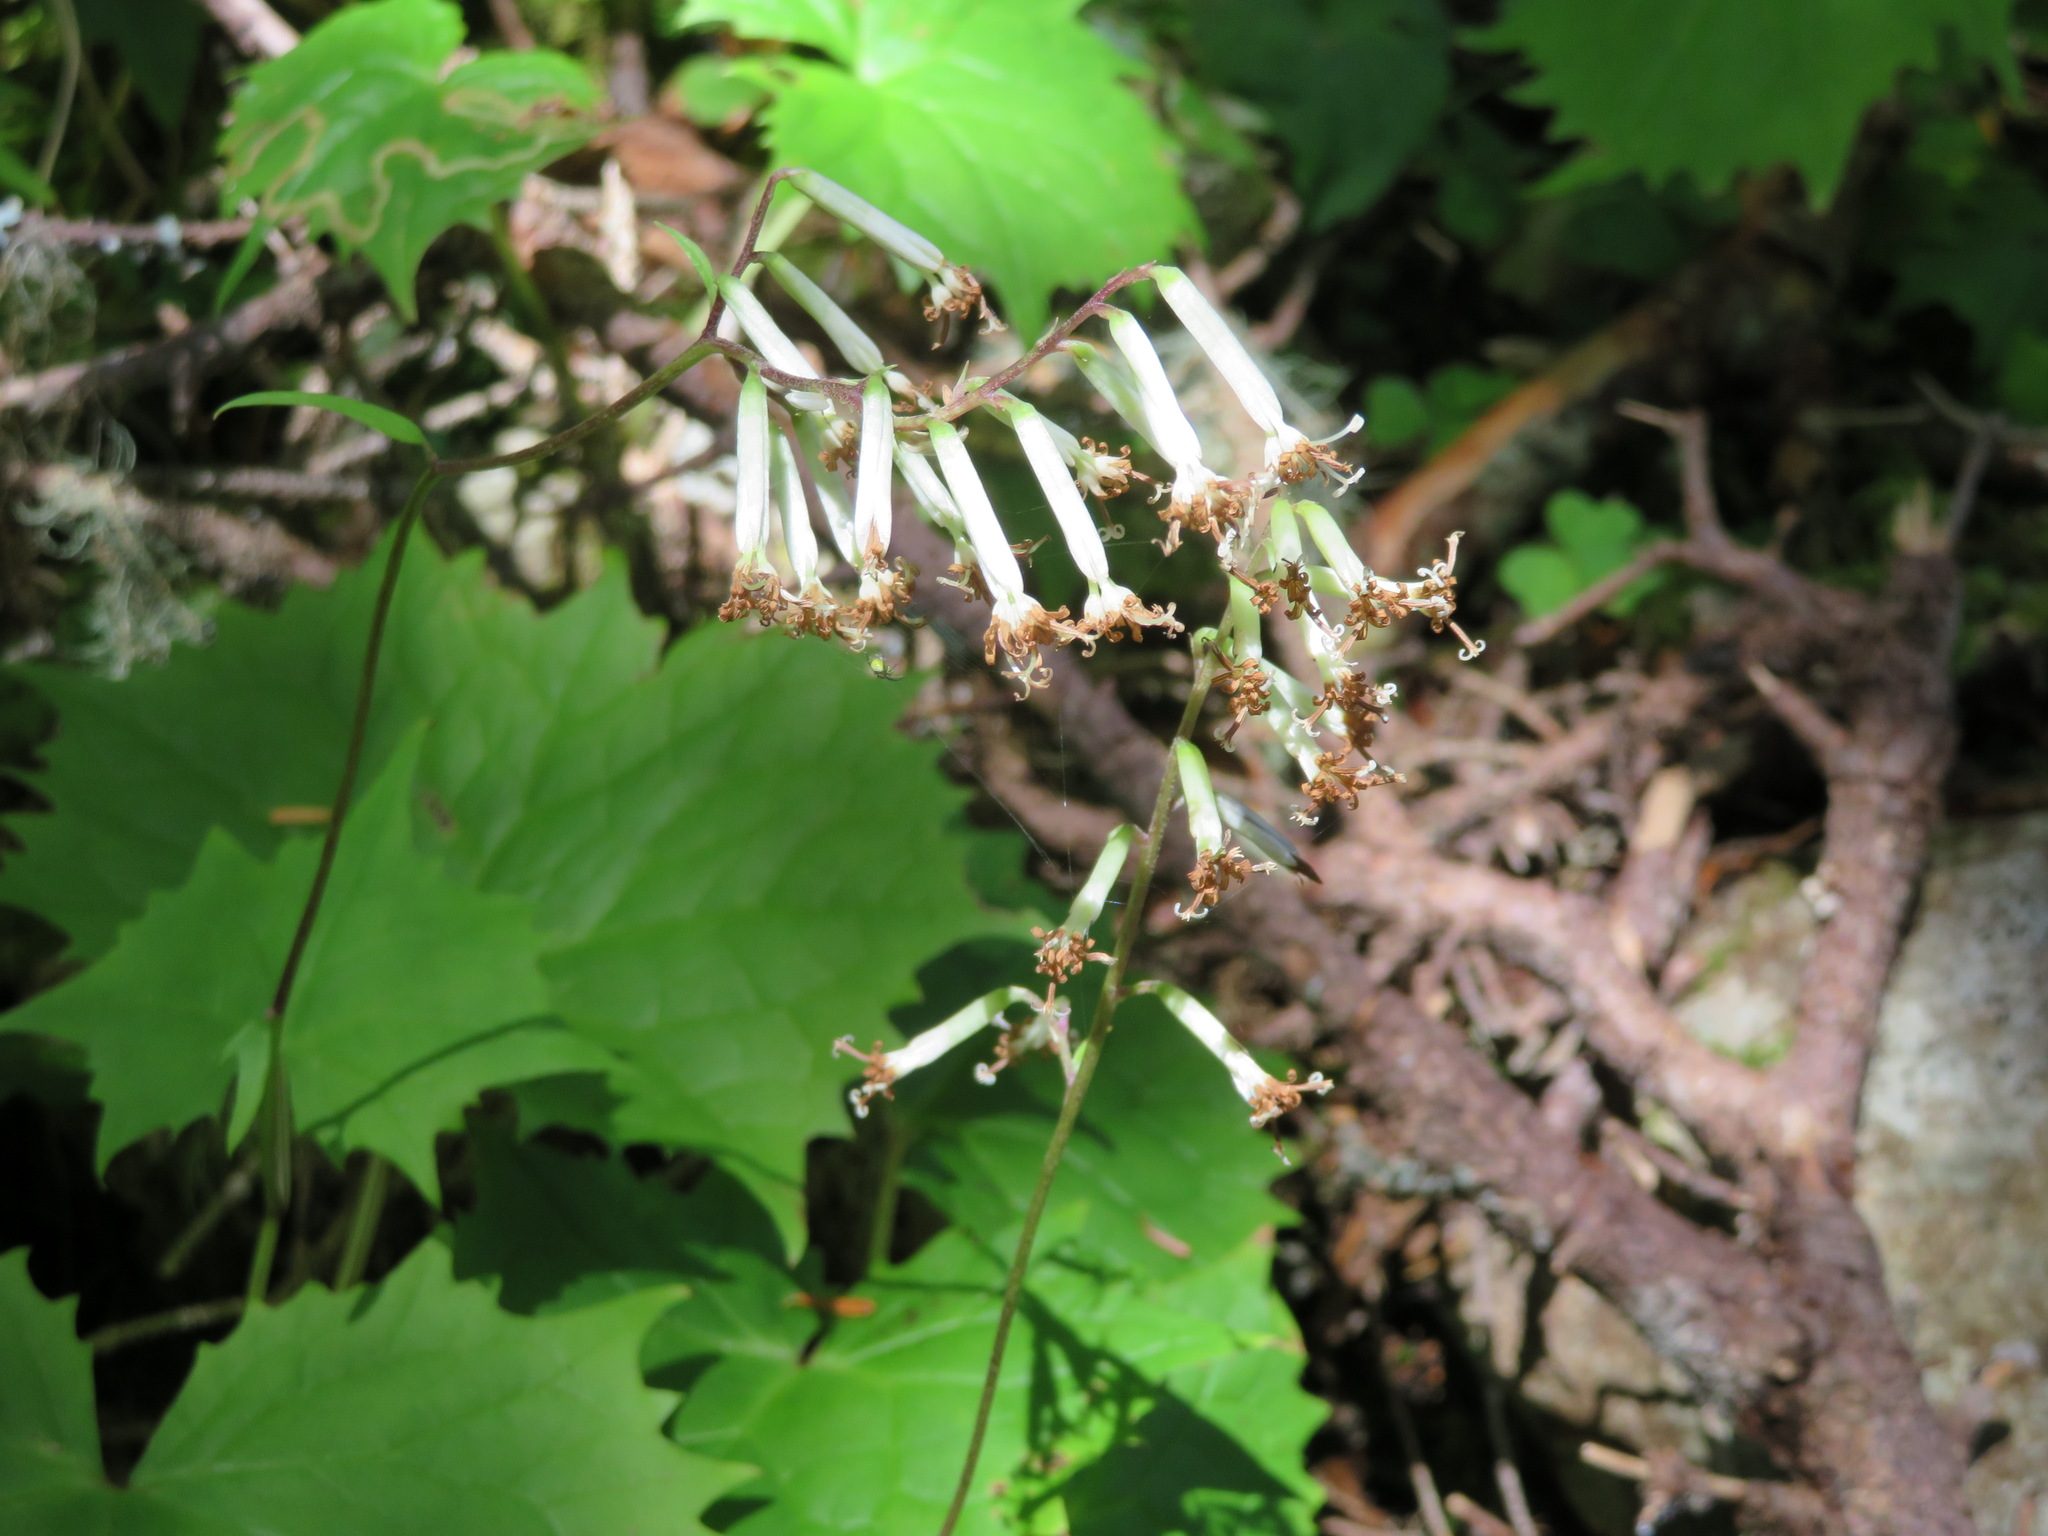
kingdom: Plantae
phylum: Tracheophyta
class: Magnoliopsida
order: Asterales
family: Asteraceae
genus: Parasenecio
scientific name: Parasenecio adenostyloides
